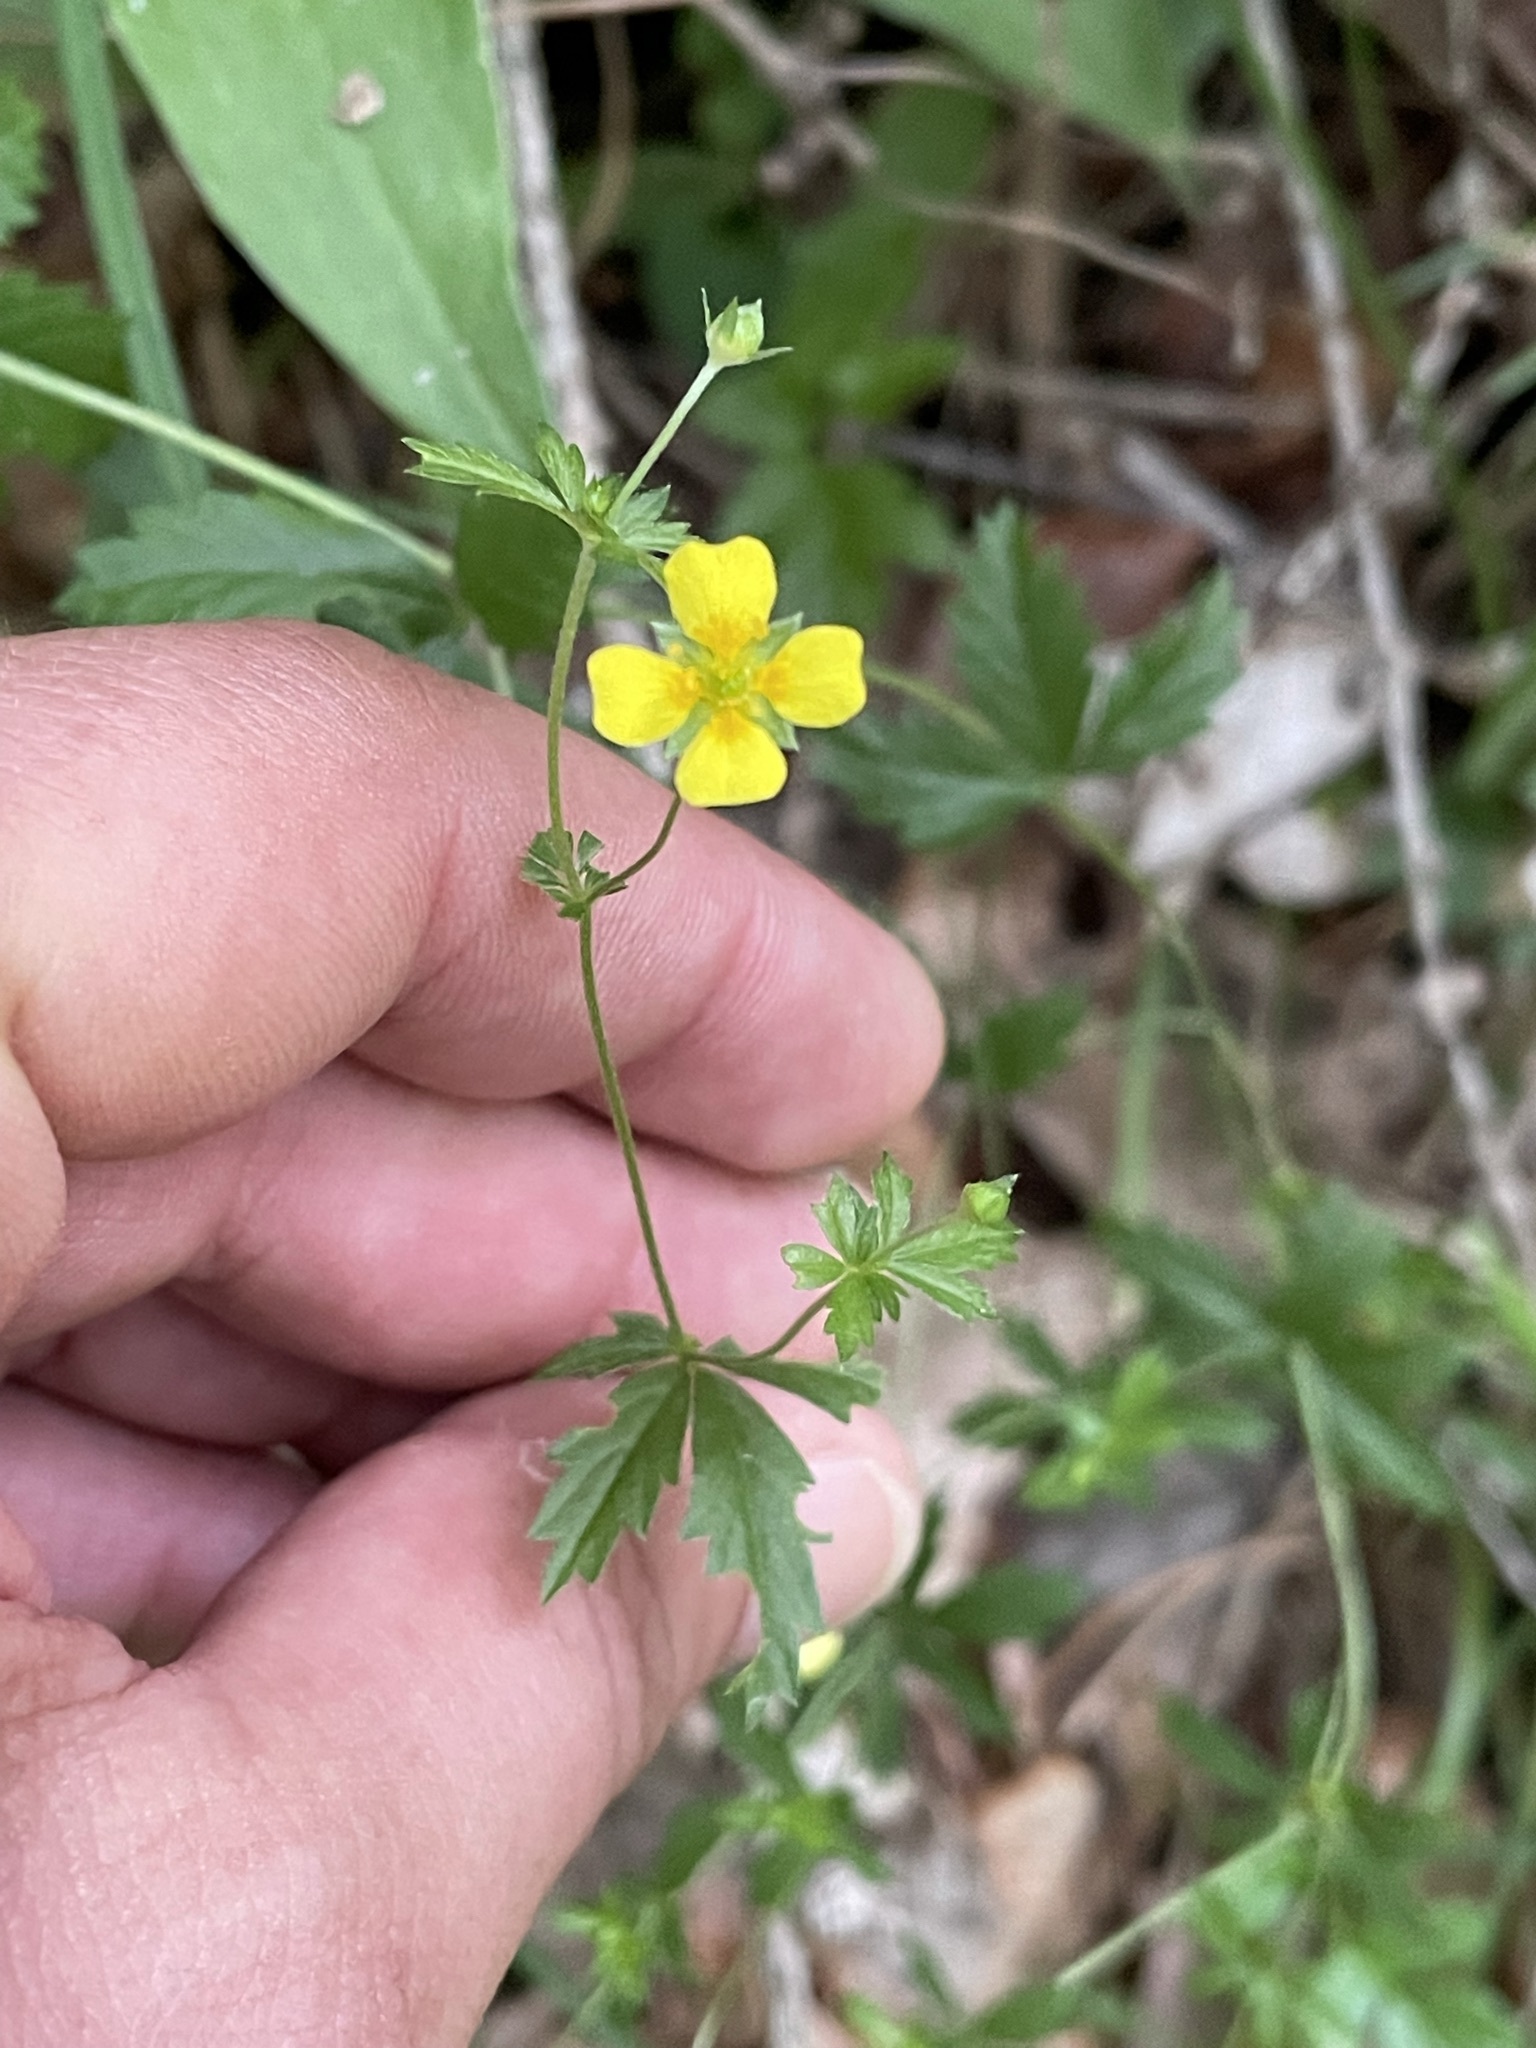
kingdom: Plantae
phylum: Tracheophyta
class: Magnoliopsida
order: Rosales
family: Rosaceae
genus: Potentilla
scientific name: Potentilla erecta
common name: Tormentil
